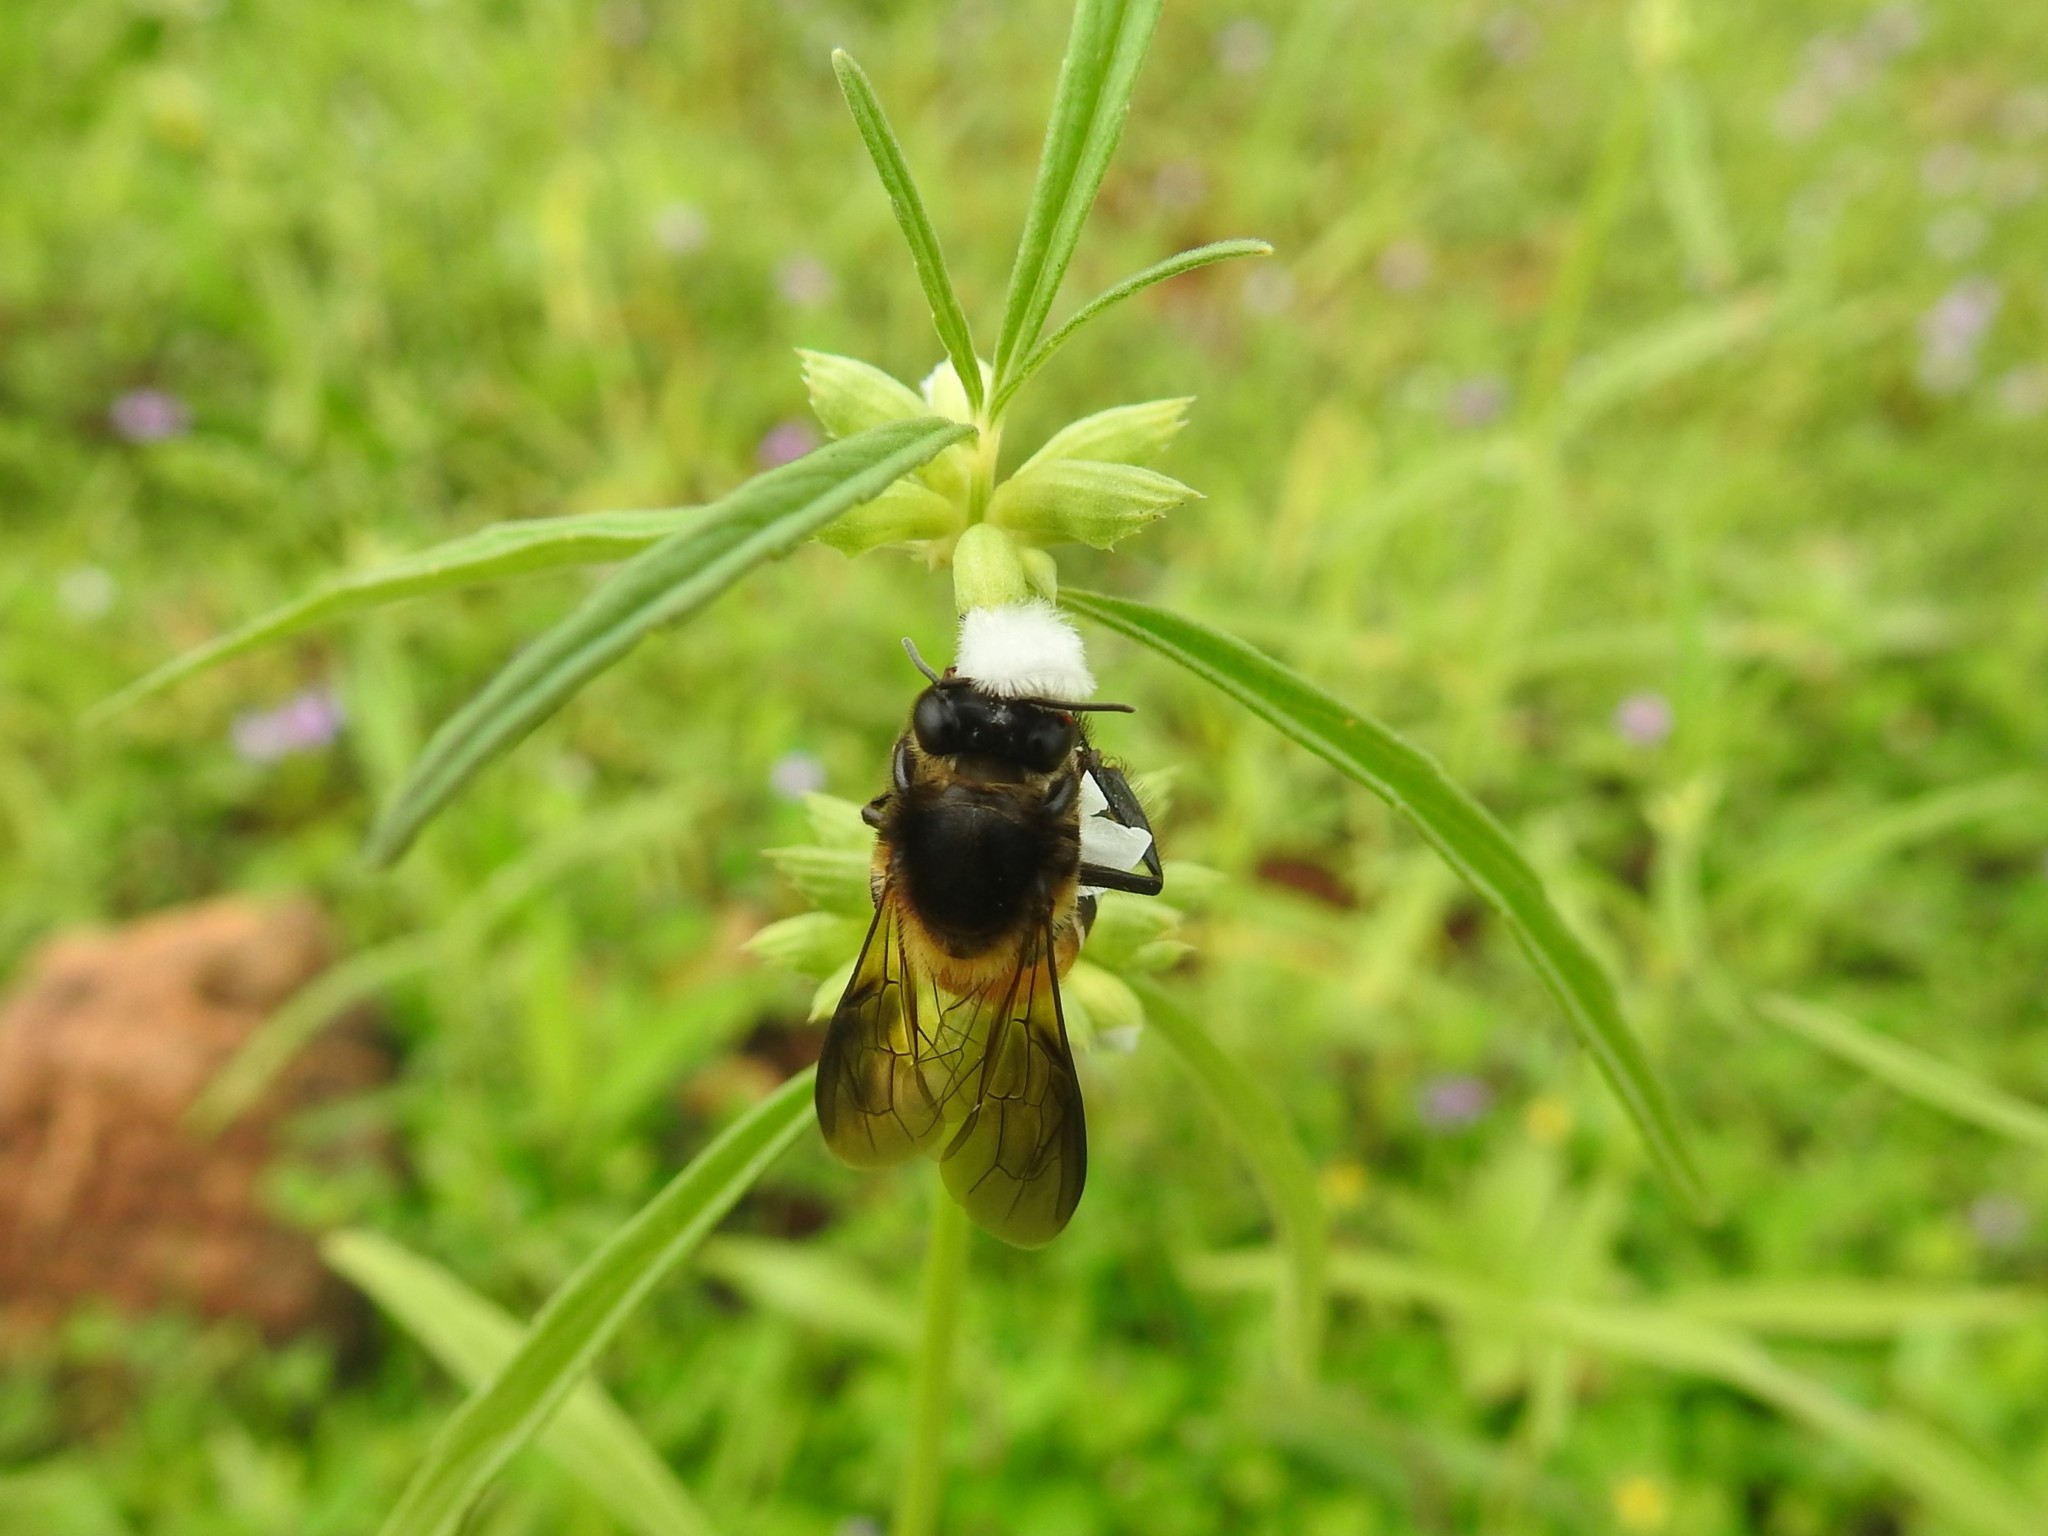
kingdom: Animalia
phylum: Arthropoda
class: Insecta
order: Hymenoptera
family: Apidae
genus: Apis
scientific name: Apis dorsata
